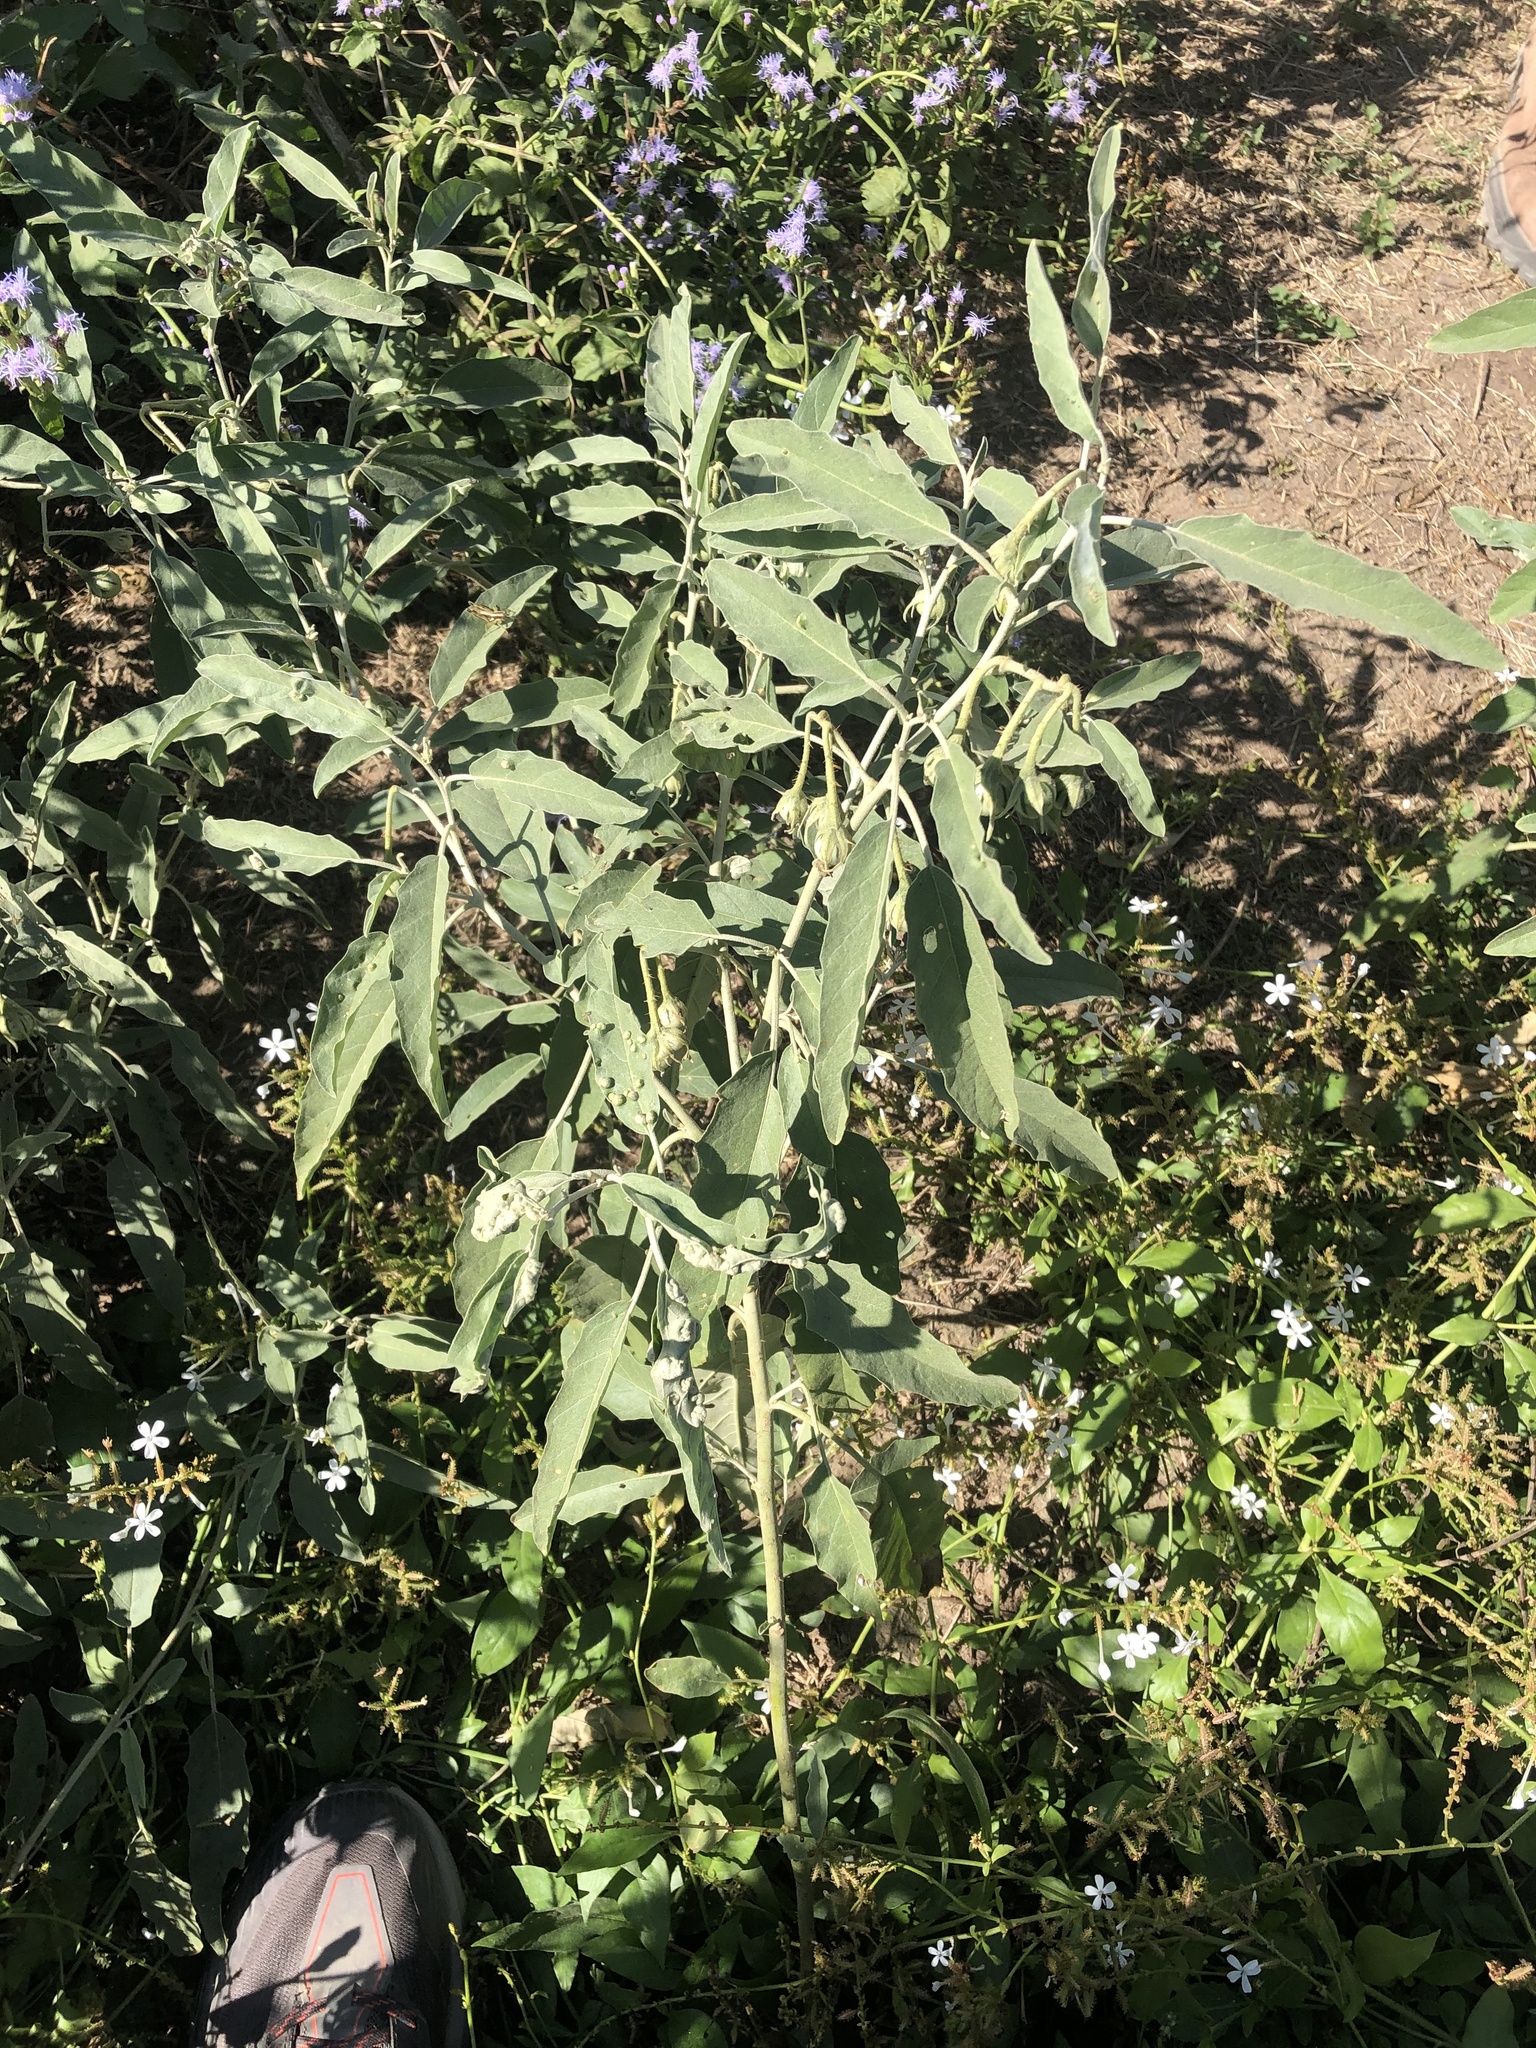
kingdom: Plantae
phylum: Tracheophyta
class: Magnoliopsida
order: Solanales
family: Solanaceae
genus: Solanum
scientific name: Solanum elaeagnifolium
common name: Silverleaf nightshade
